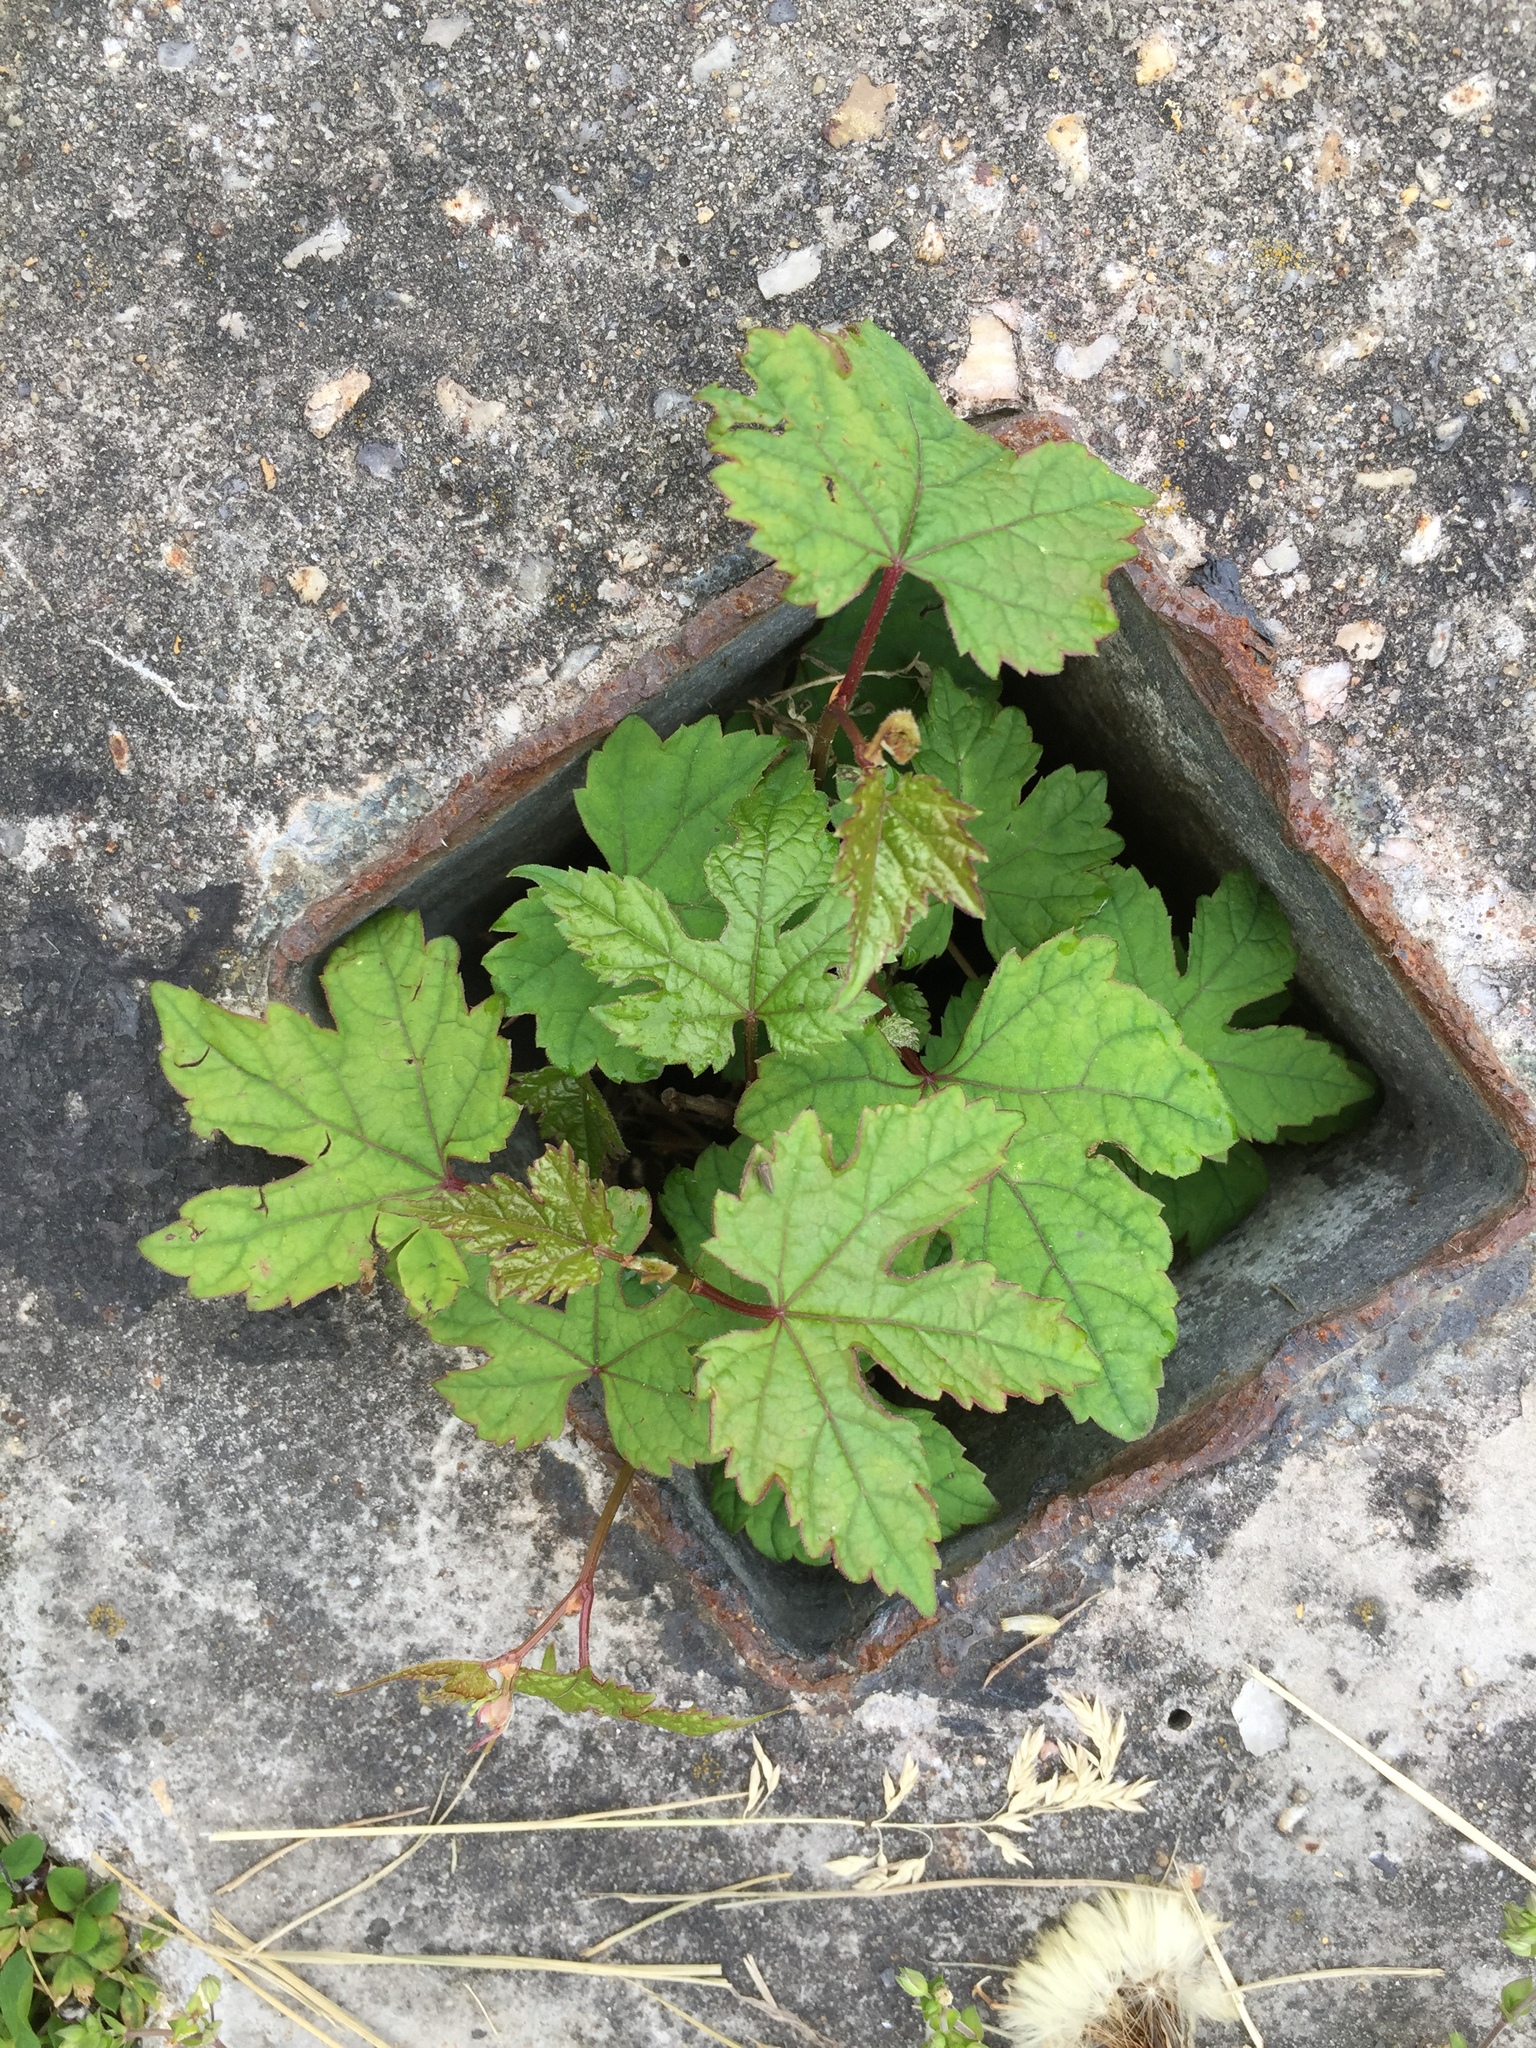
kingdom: Plantae
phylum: Tracheophyta
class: Magnoliopsida
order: Vitales
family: Vitaceae
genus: Ampelopsis
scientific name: Ampelopsis glandulosa
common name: Amur peppervine
